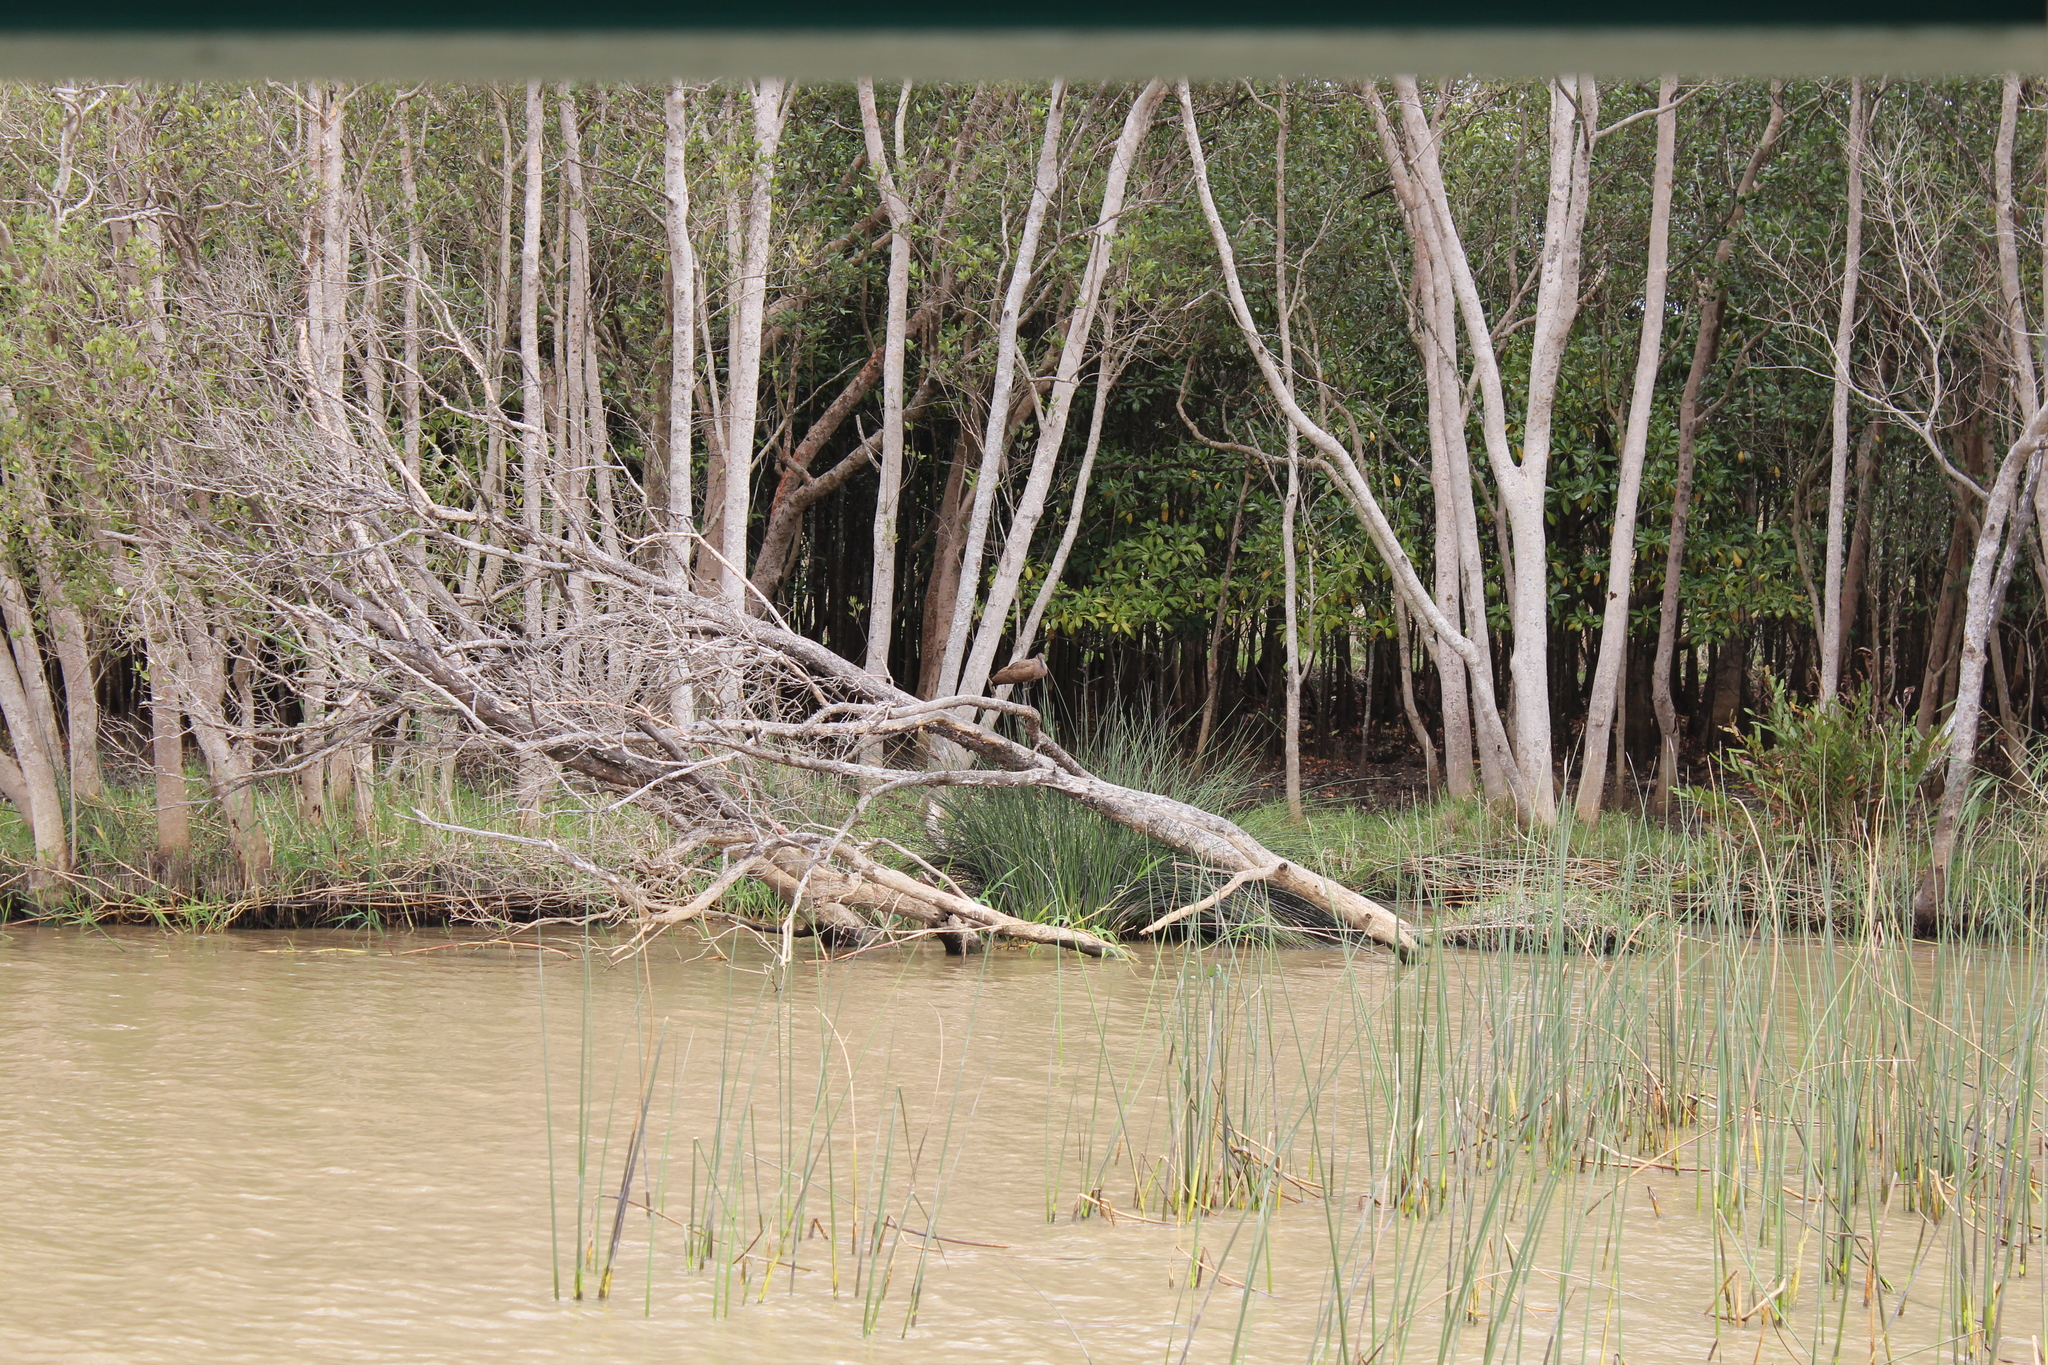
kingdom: Animalia
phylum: Chordata
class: Aves
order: Pelecaniformes
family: Scopidae
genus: Scopus
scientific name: Scopus umbretta
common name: Hamerkop
